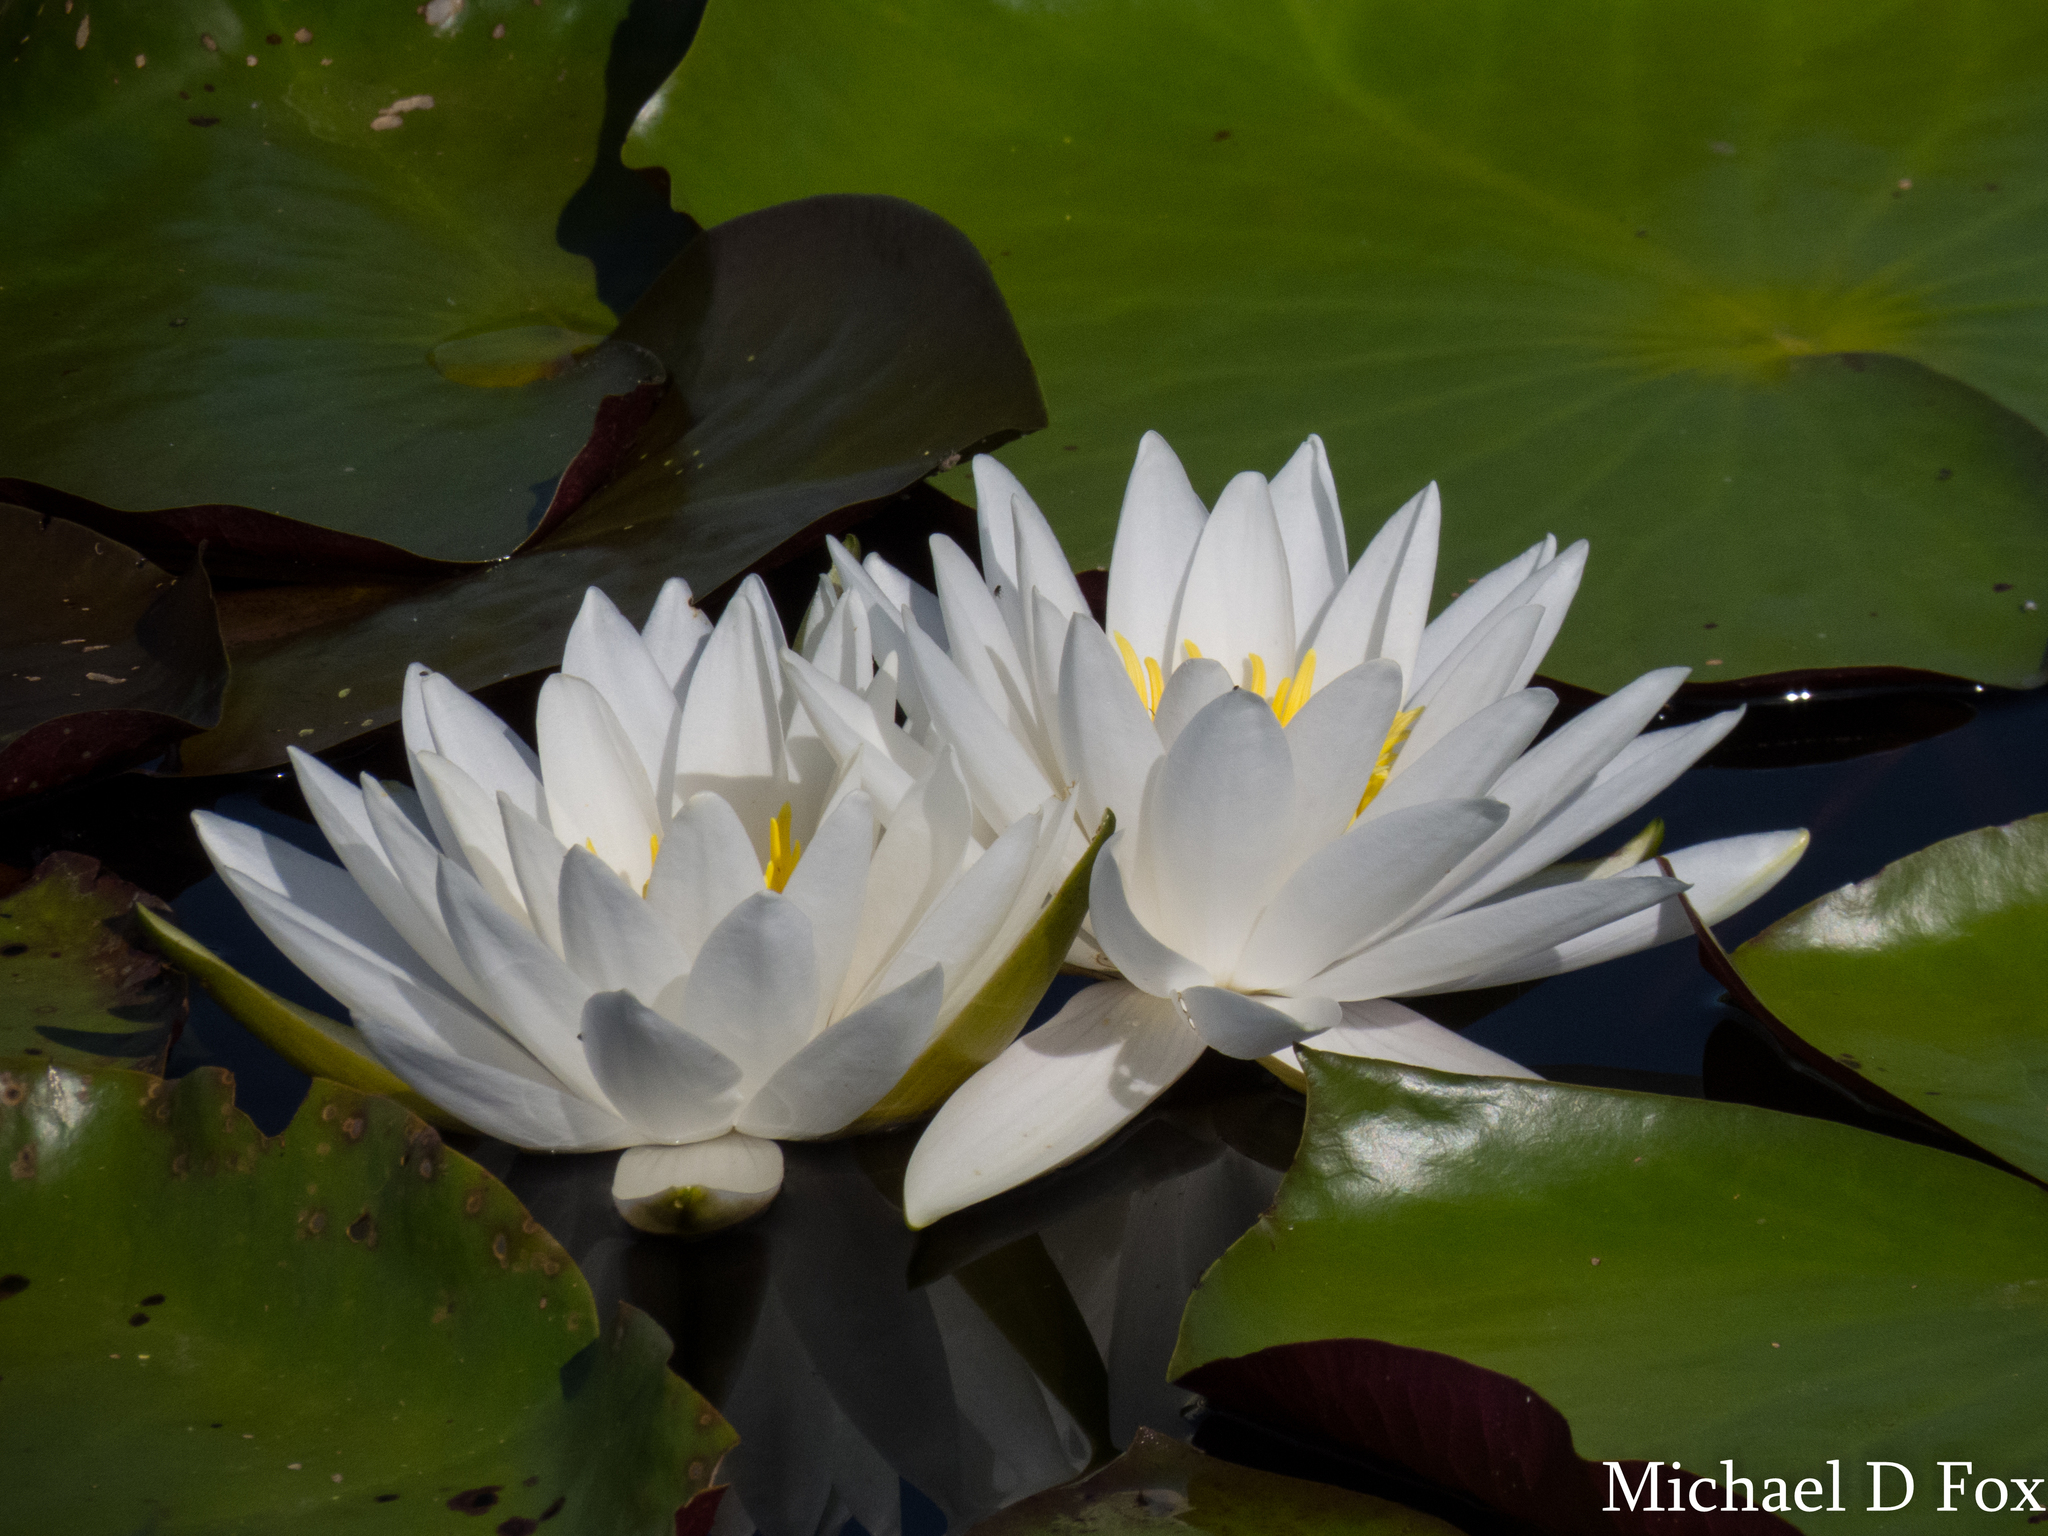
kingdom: Plantae
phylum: Tracheophyta
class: Magnoliopsida
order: Nymphaeales
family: Nymphaeaceae
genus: Nymphaea
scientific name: Nymphaea odorata
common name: Fragrant water-lily
